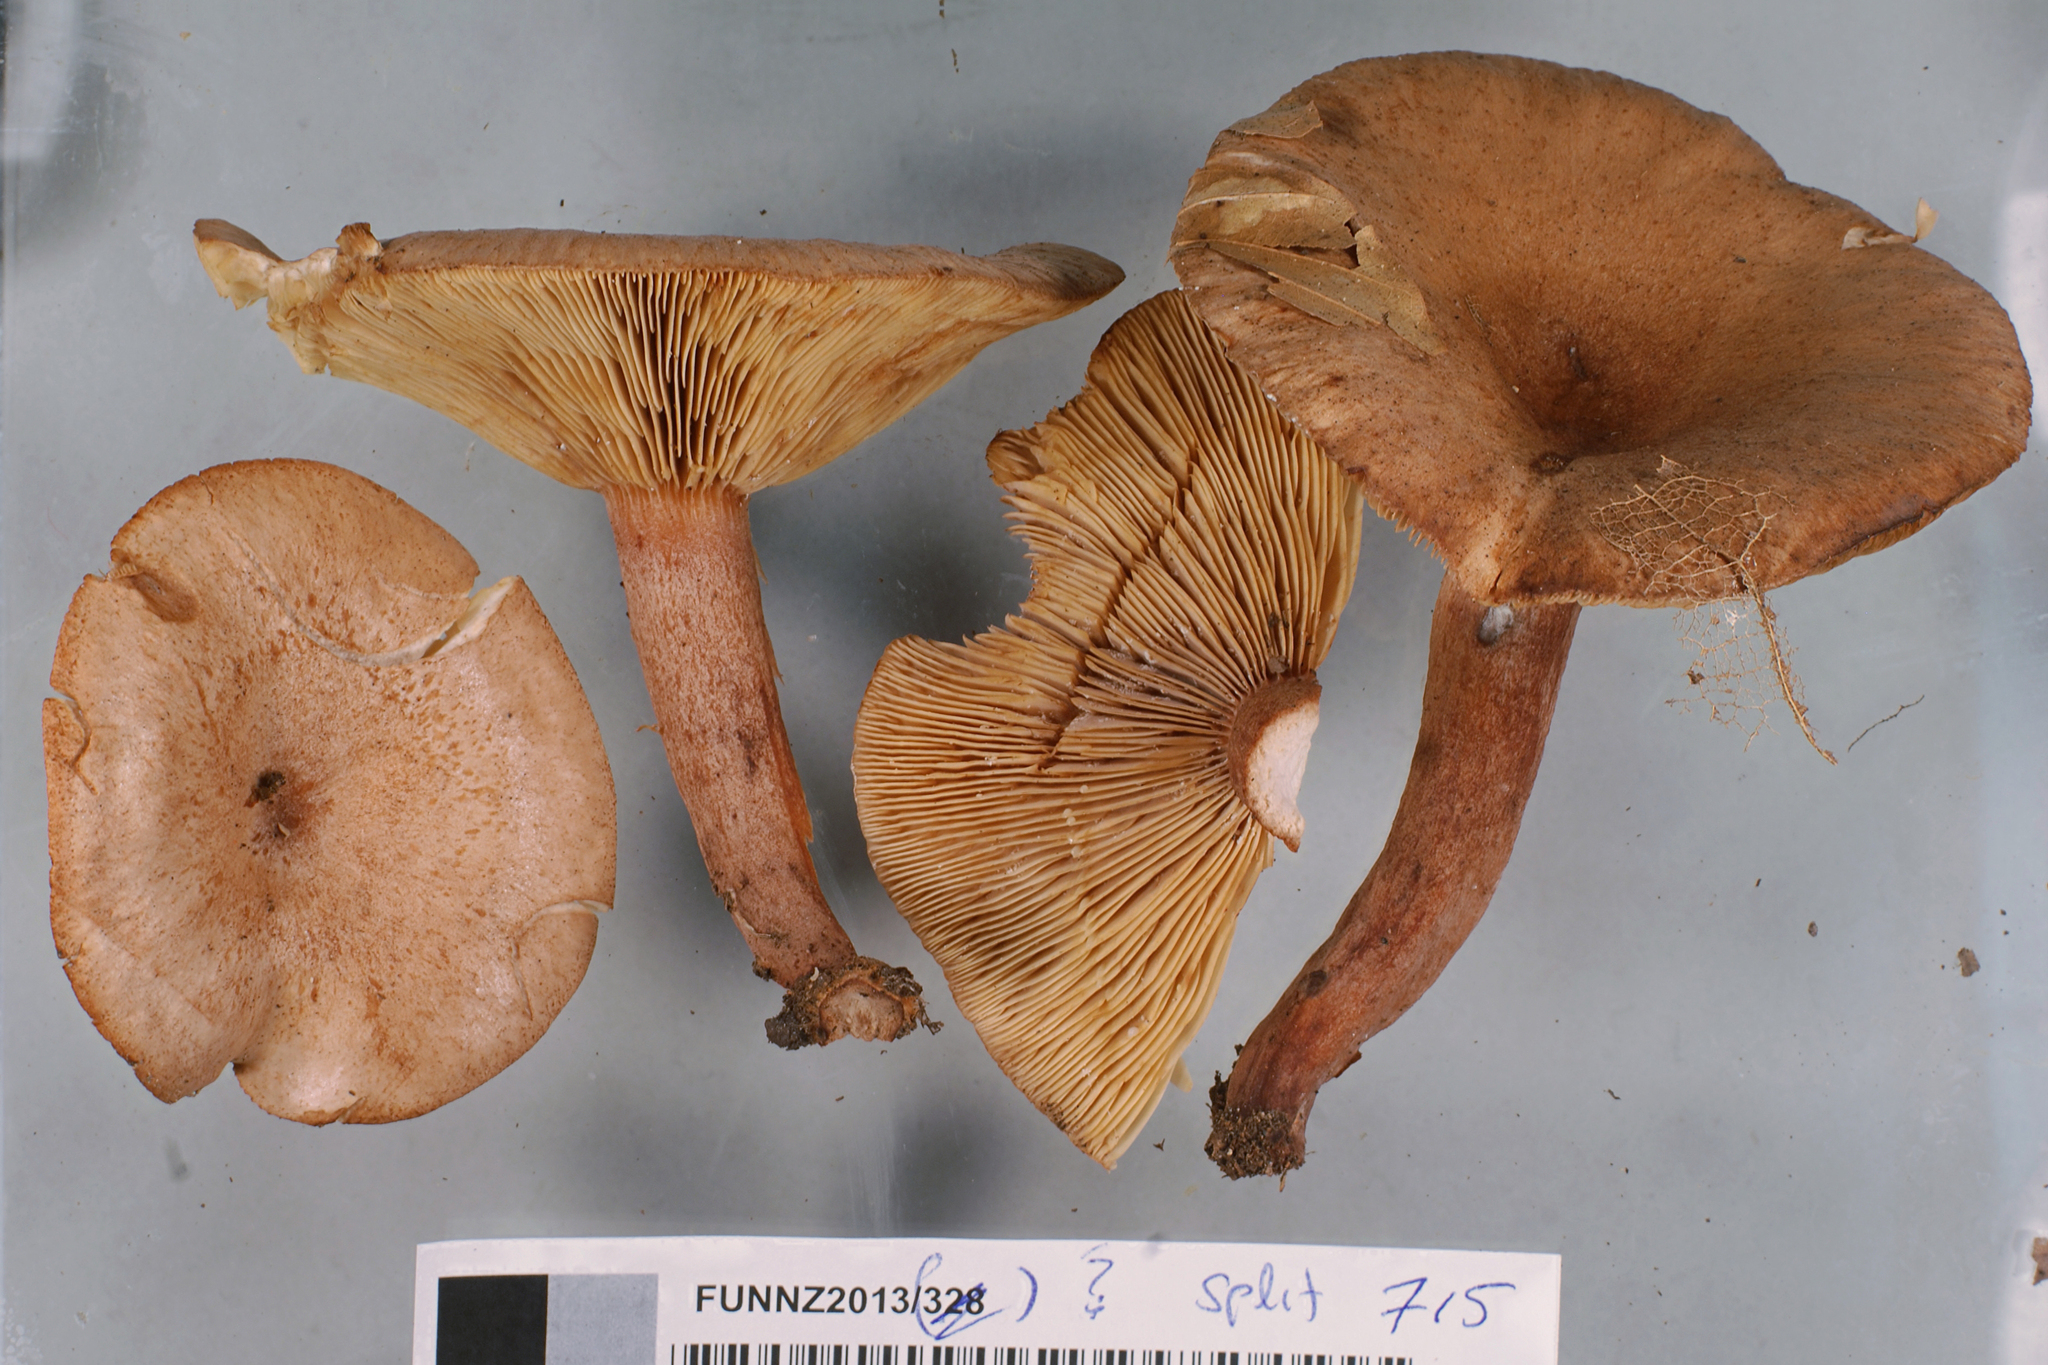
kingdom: Fungi
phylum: Basidiomycota
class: Agaricomycetes
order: Russulales
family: Russulaceae
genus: Lactarius
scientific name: Lactarius quietus
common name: Oak milk-cap
